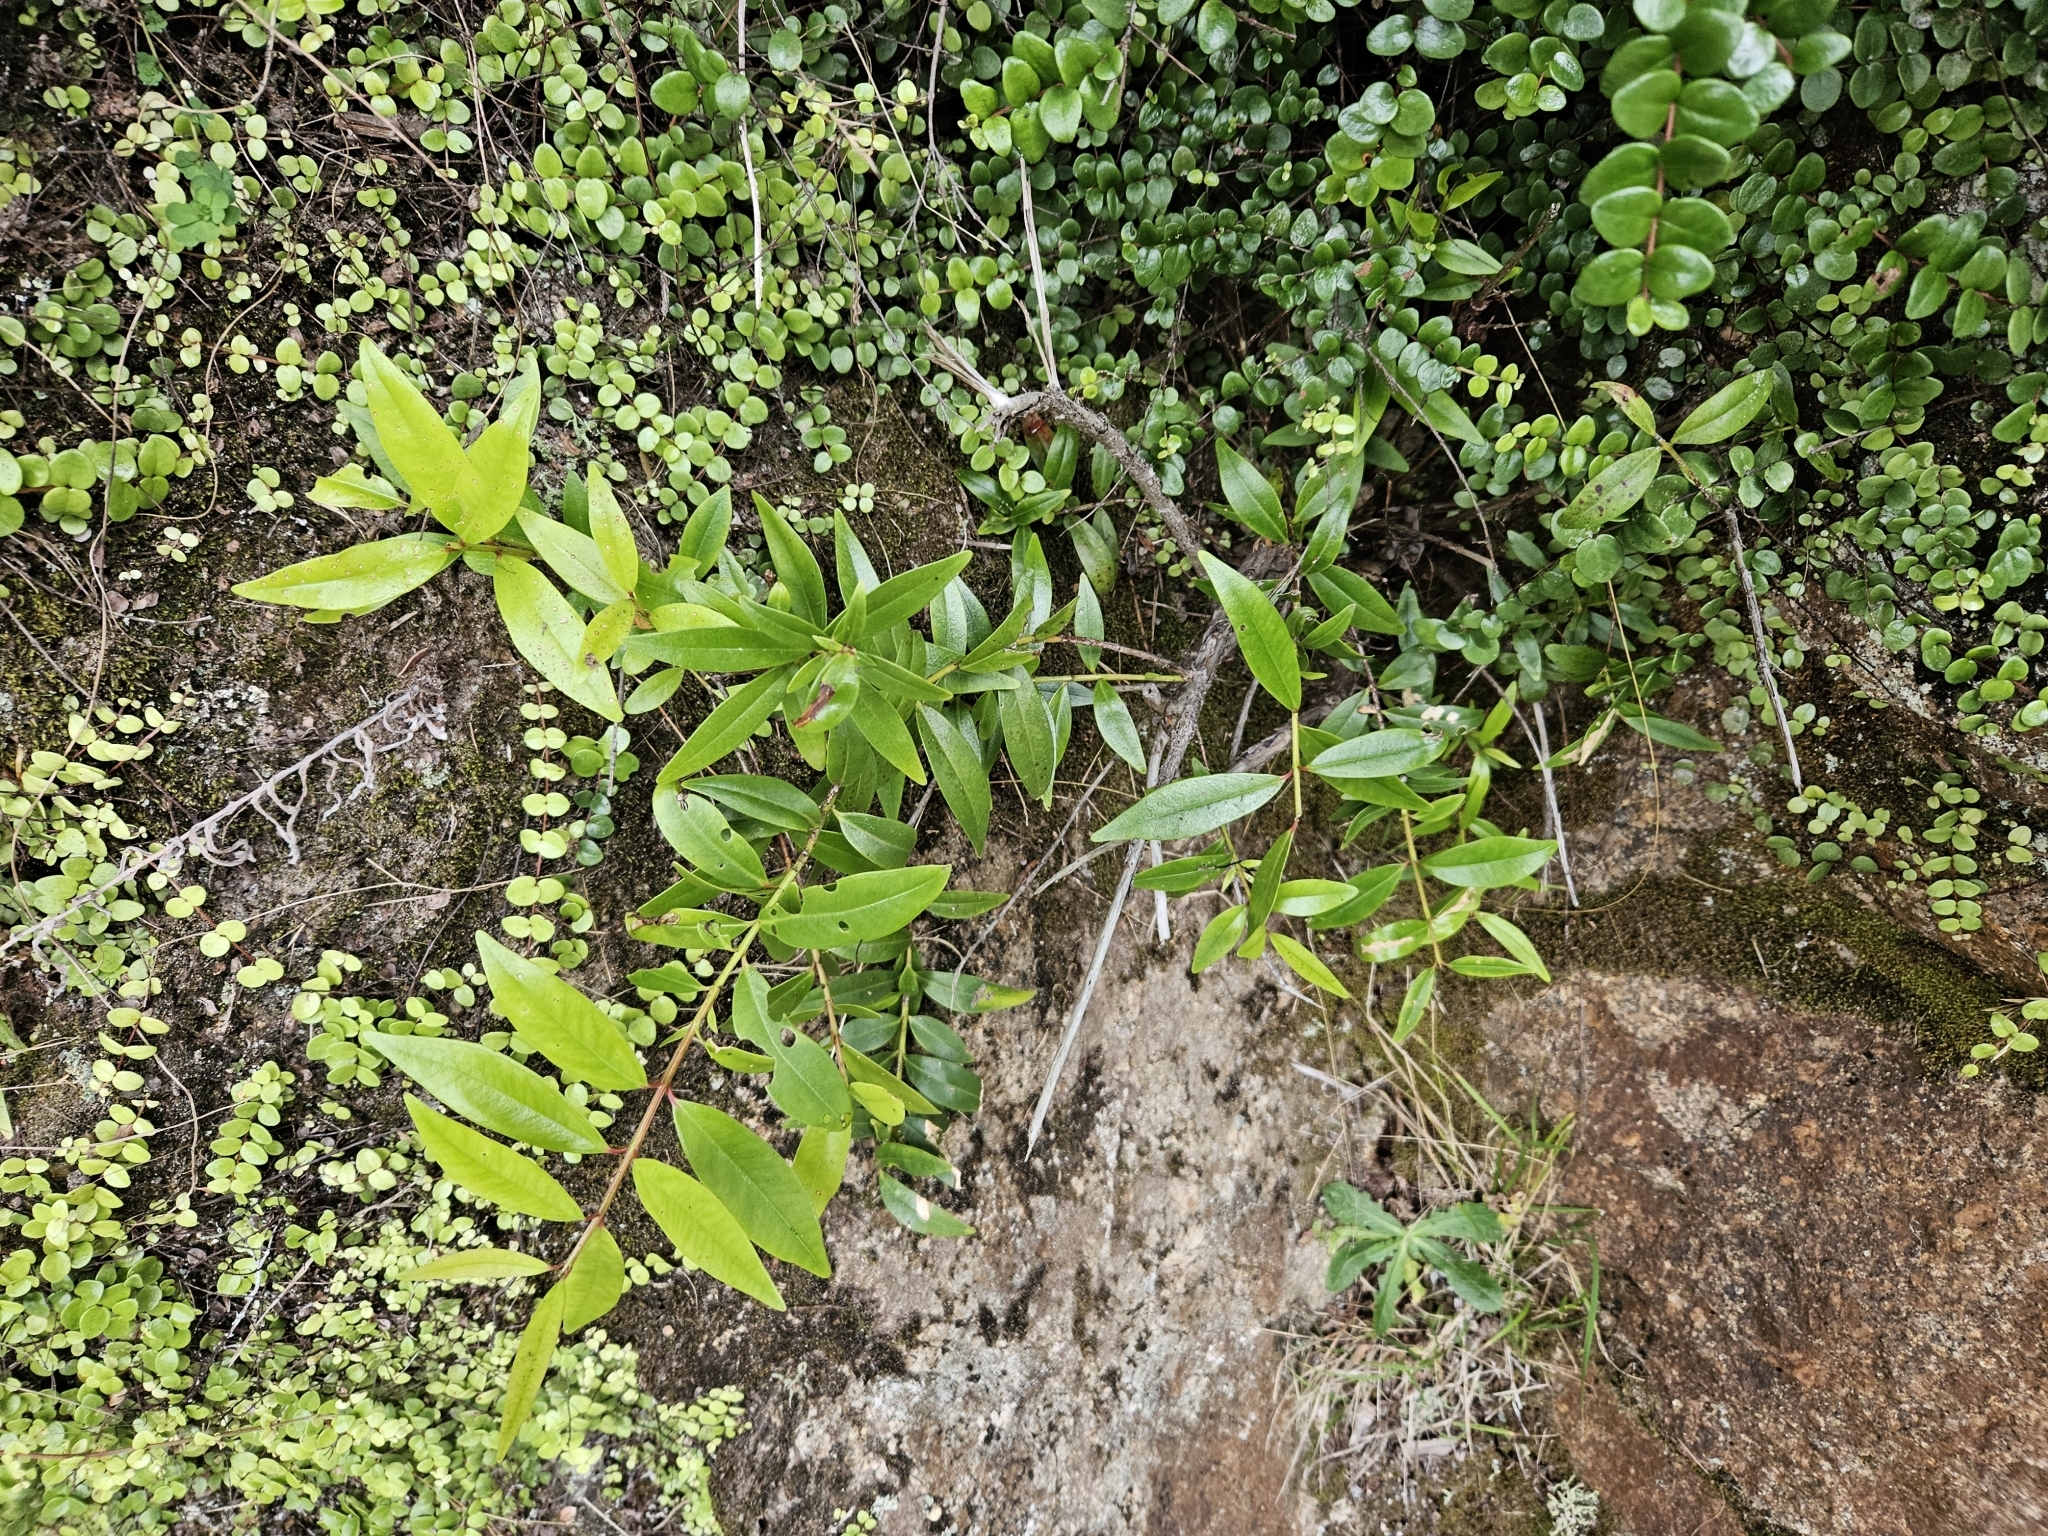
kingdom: Plantae
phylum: Tracheophyta
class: Magnoliopsida
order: Myrtales
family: Myrtaceae
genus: Metrosideros
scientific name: Metrosideros umbellata
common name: Southern rata
